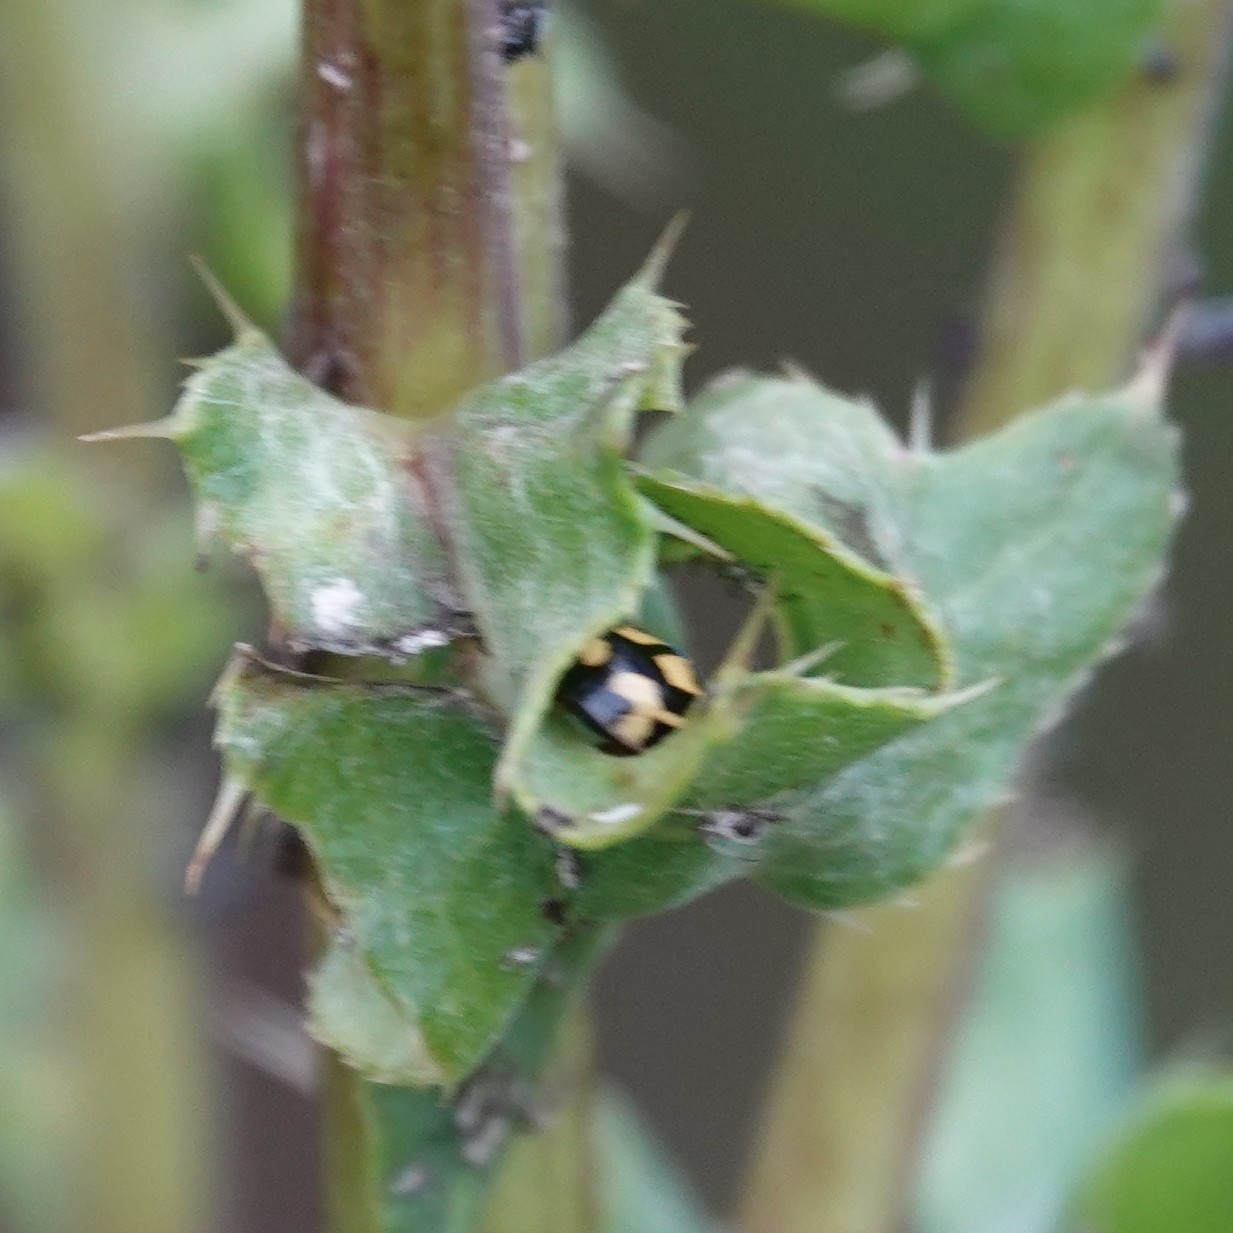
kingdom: Animalia
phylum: Arthropoda
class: Insecta
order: Coleoptera
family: Coccinellidae
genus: Propylaea
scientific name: Propylaea quatuordecimpunctata
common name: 14-spotted ladybird beetle
